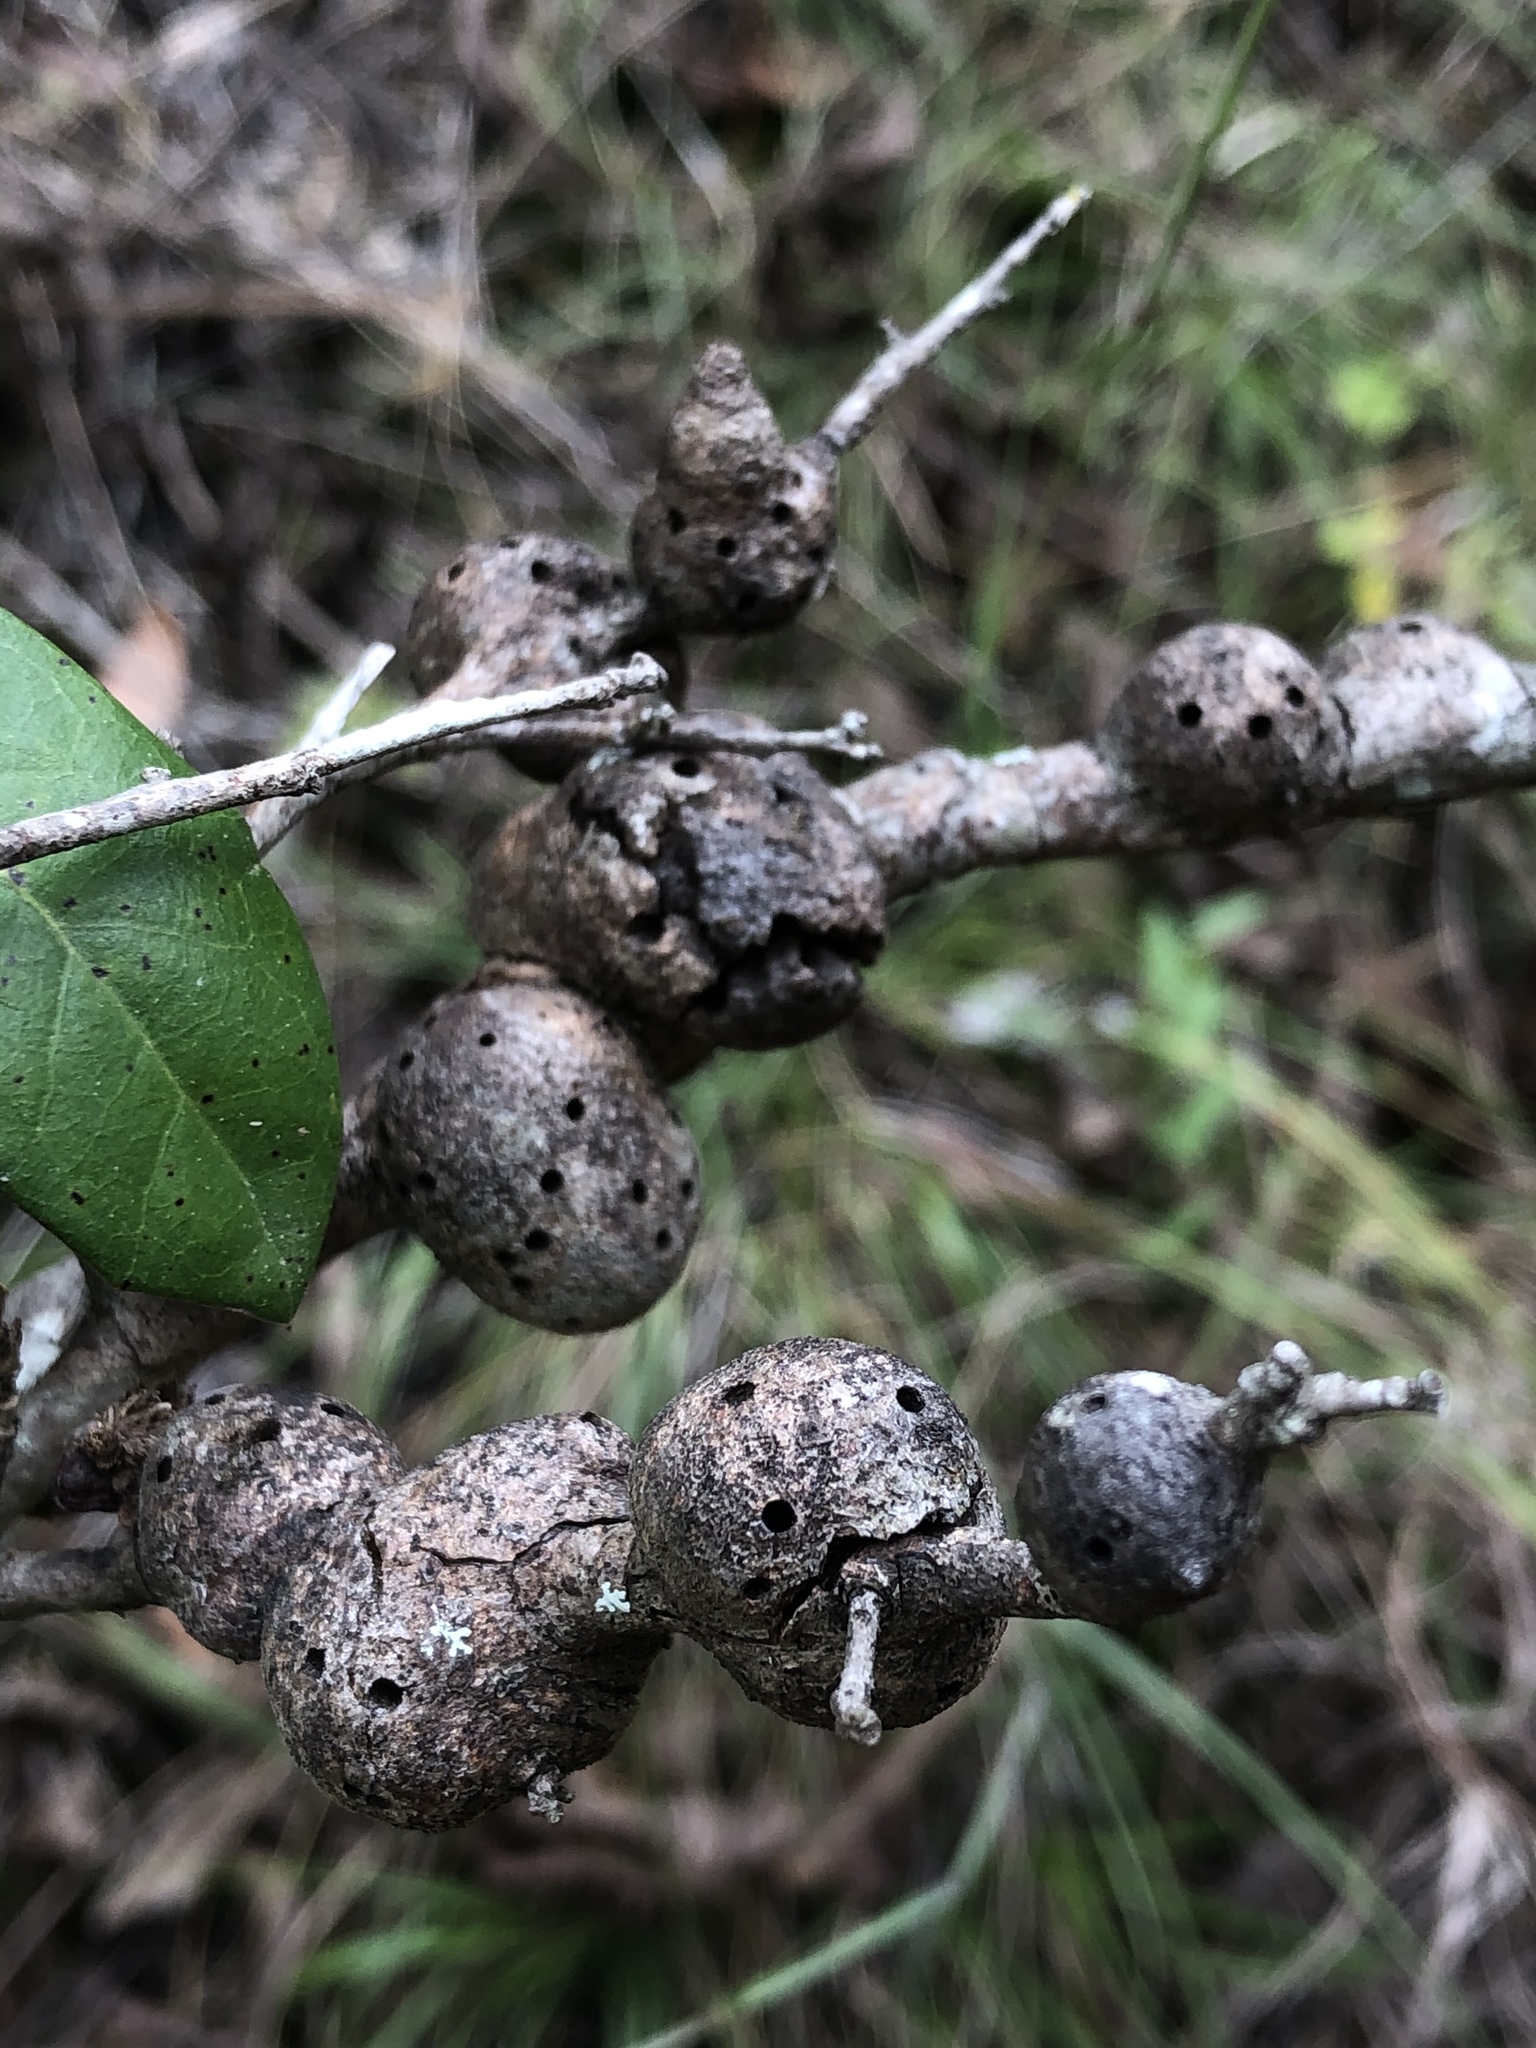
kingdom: Animalia
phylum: Arthropoda
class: Insecta
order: Hymenoptera
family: Cynipidae
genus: Callirhytis
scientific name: Callirhytis
